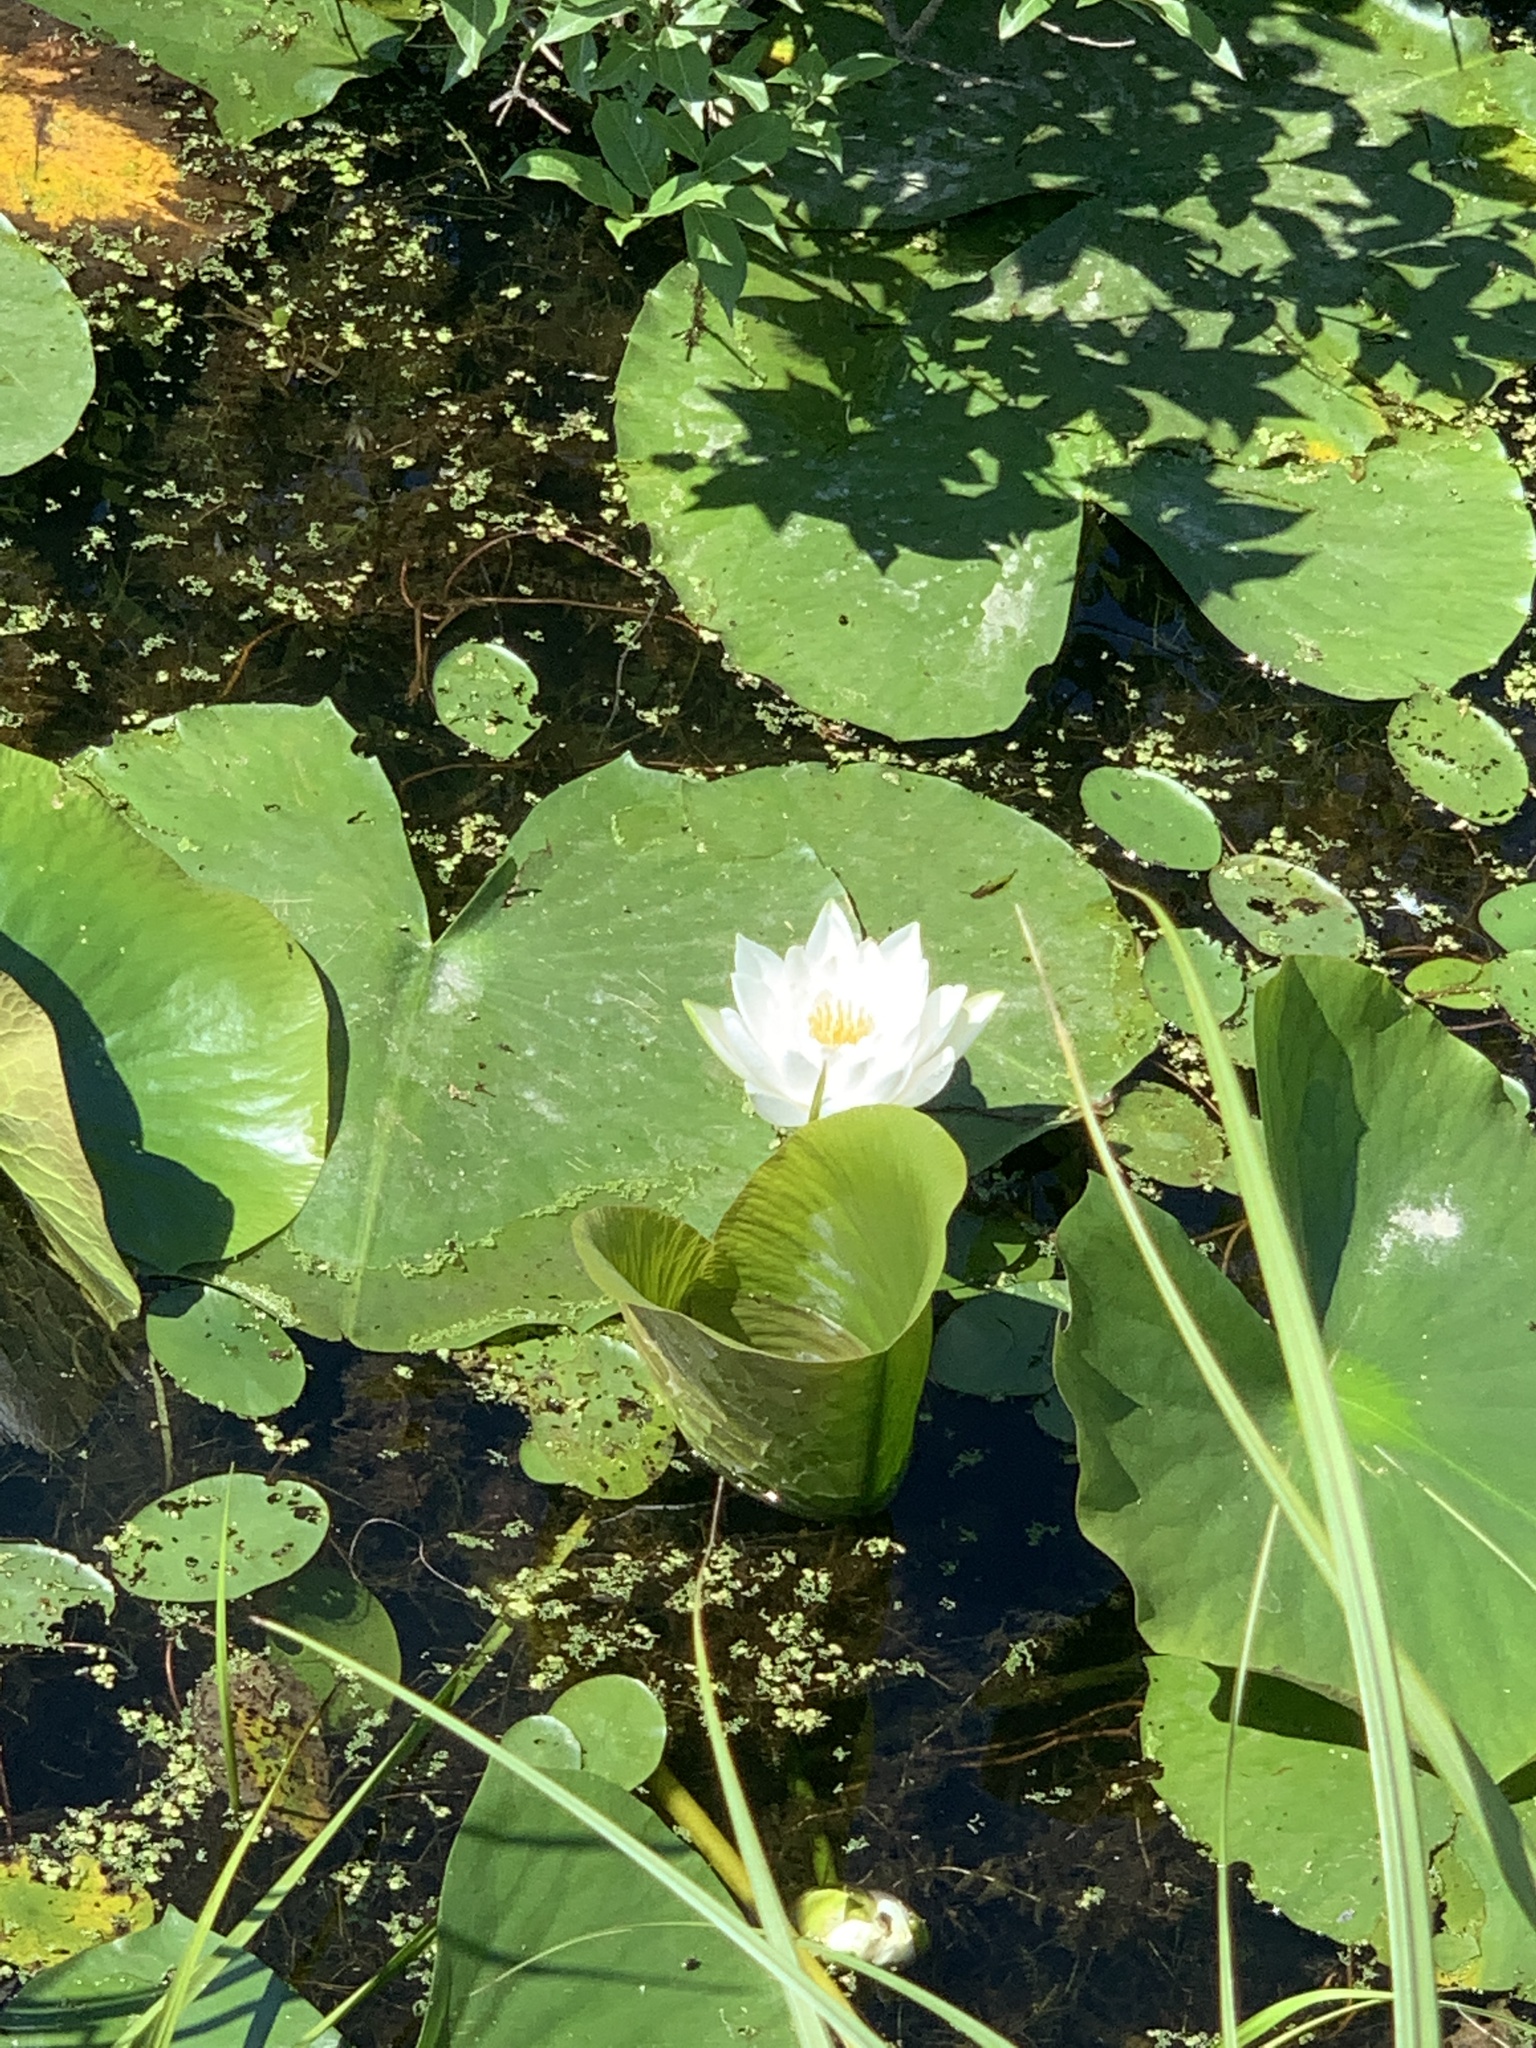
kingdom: Plantae
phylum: Tracheophyta
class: Magnoliopsida
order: Nymphaeales
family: Nymphaeaceae
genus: Nymphaea
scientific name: Nymphaea odorata
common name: Fragrant water-lily
